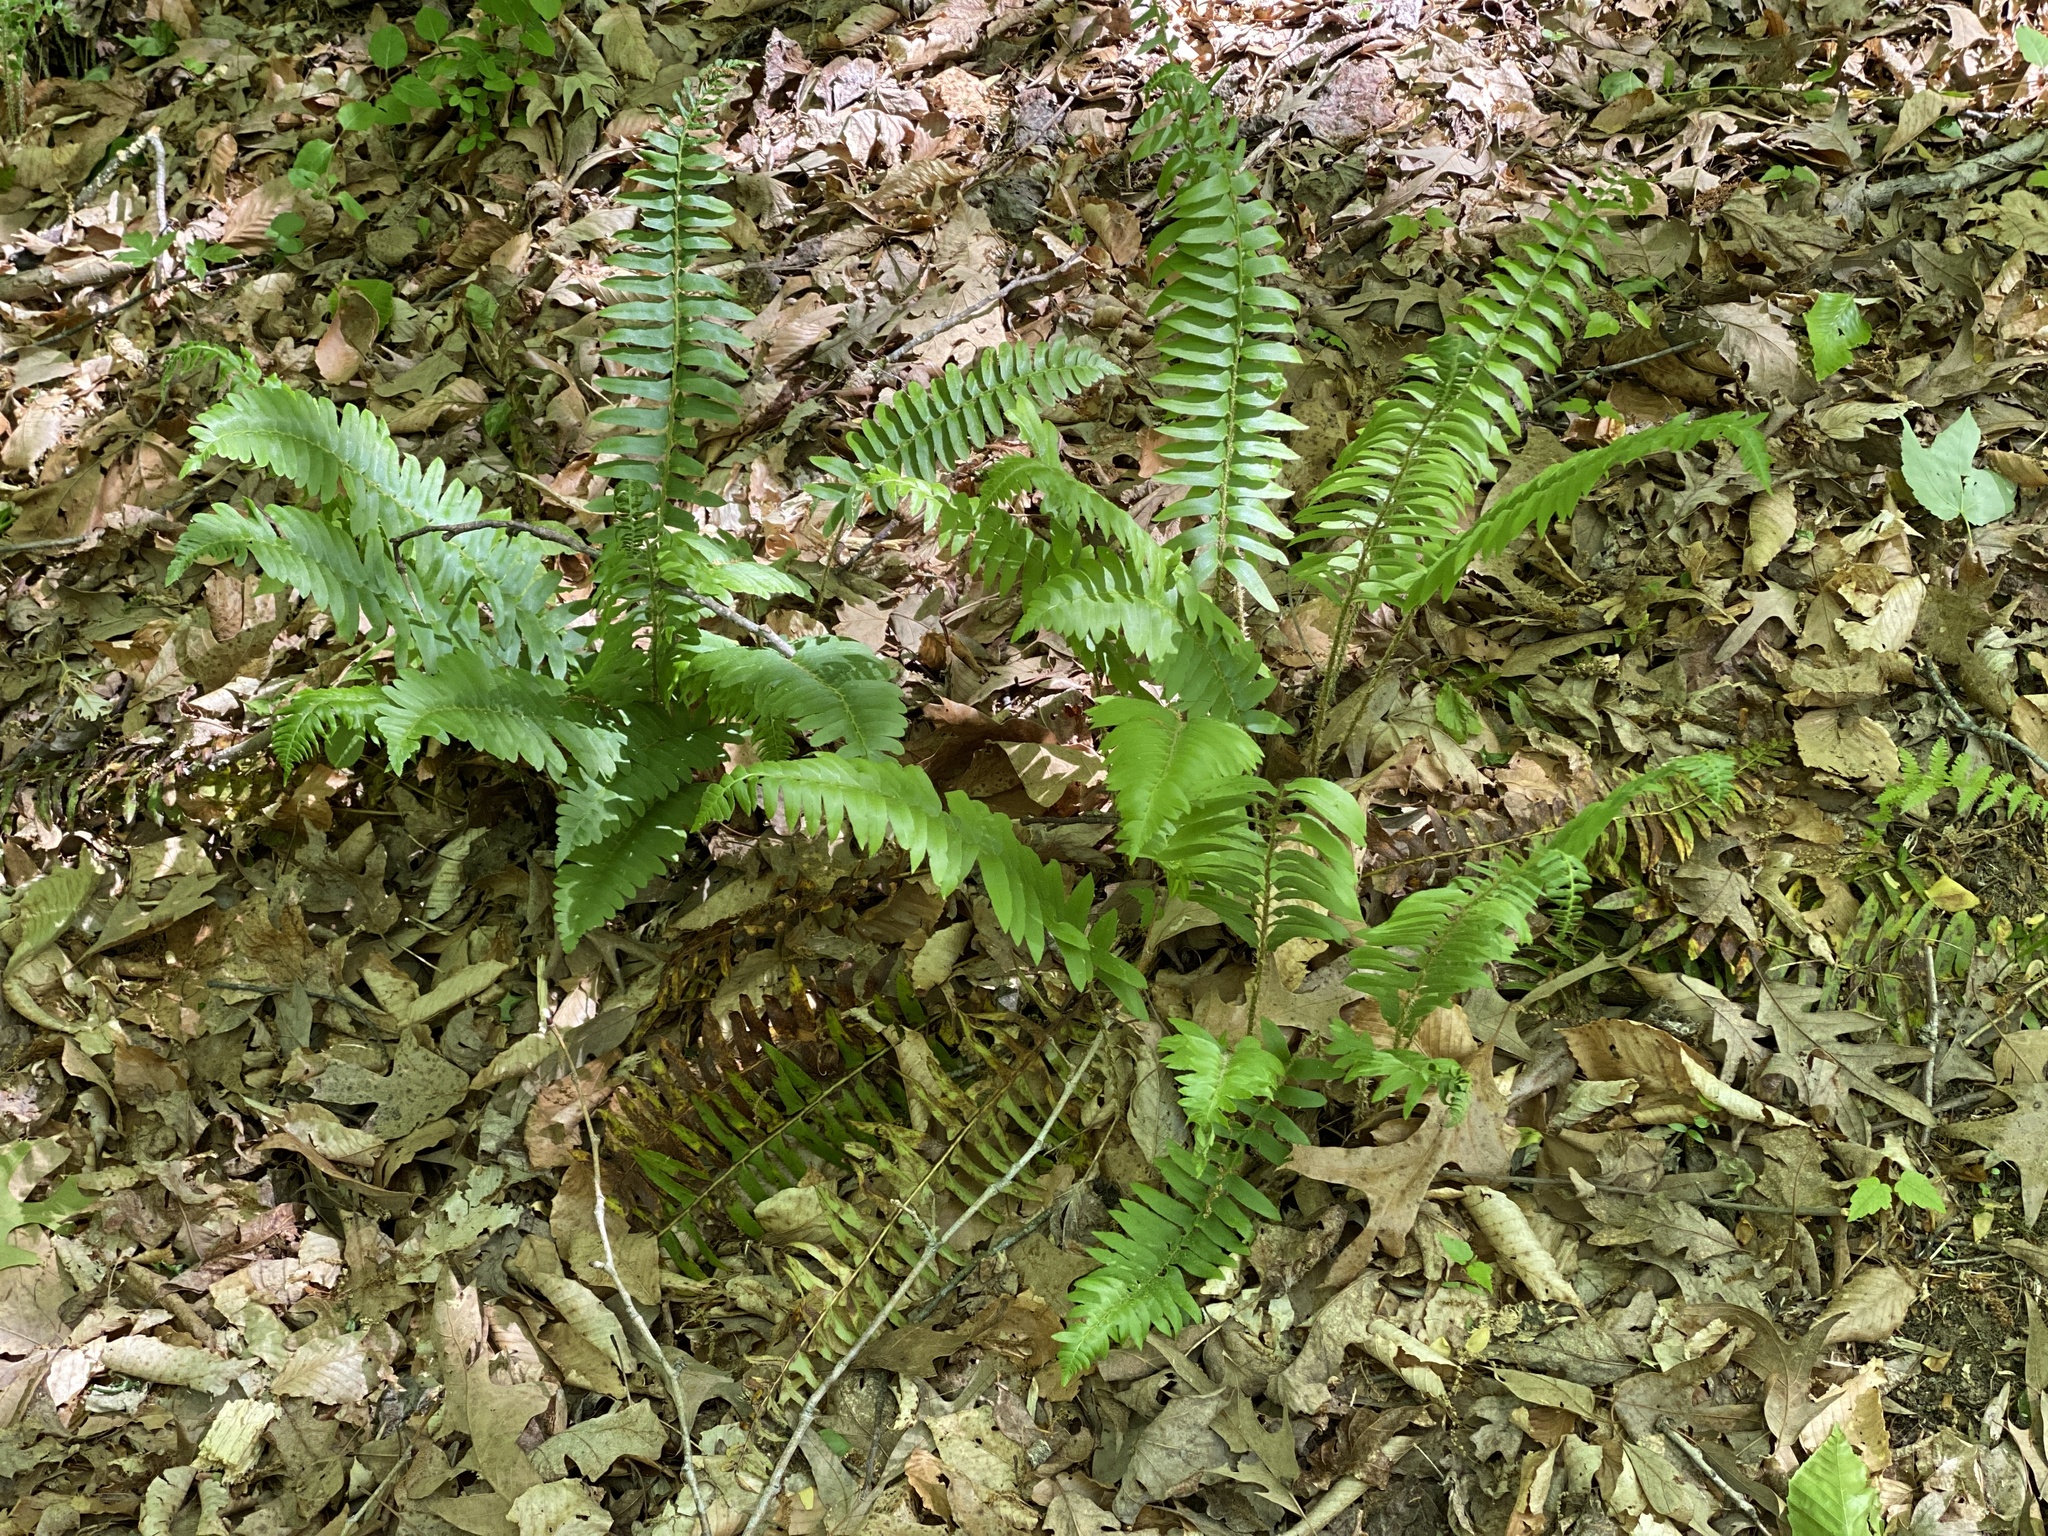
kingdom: Plantae
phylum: Tracheophyta
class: Polypodiopsida
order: Polypodiales
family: Dryopteridaceae
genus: Polystichum
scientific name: Polystichum acrostichoides
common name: Christmas fern
